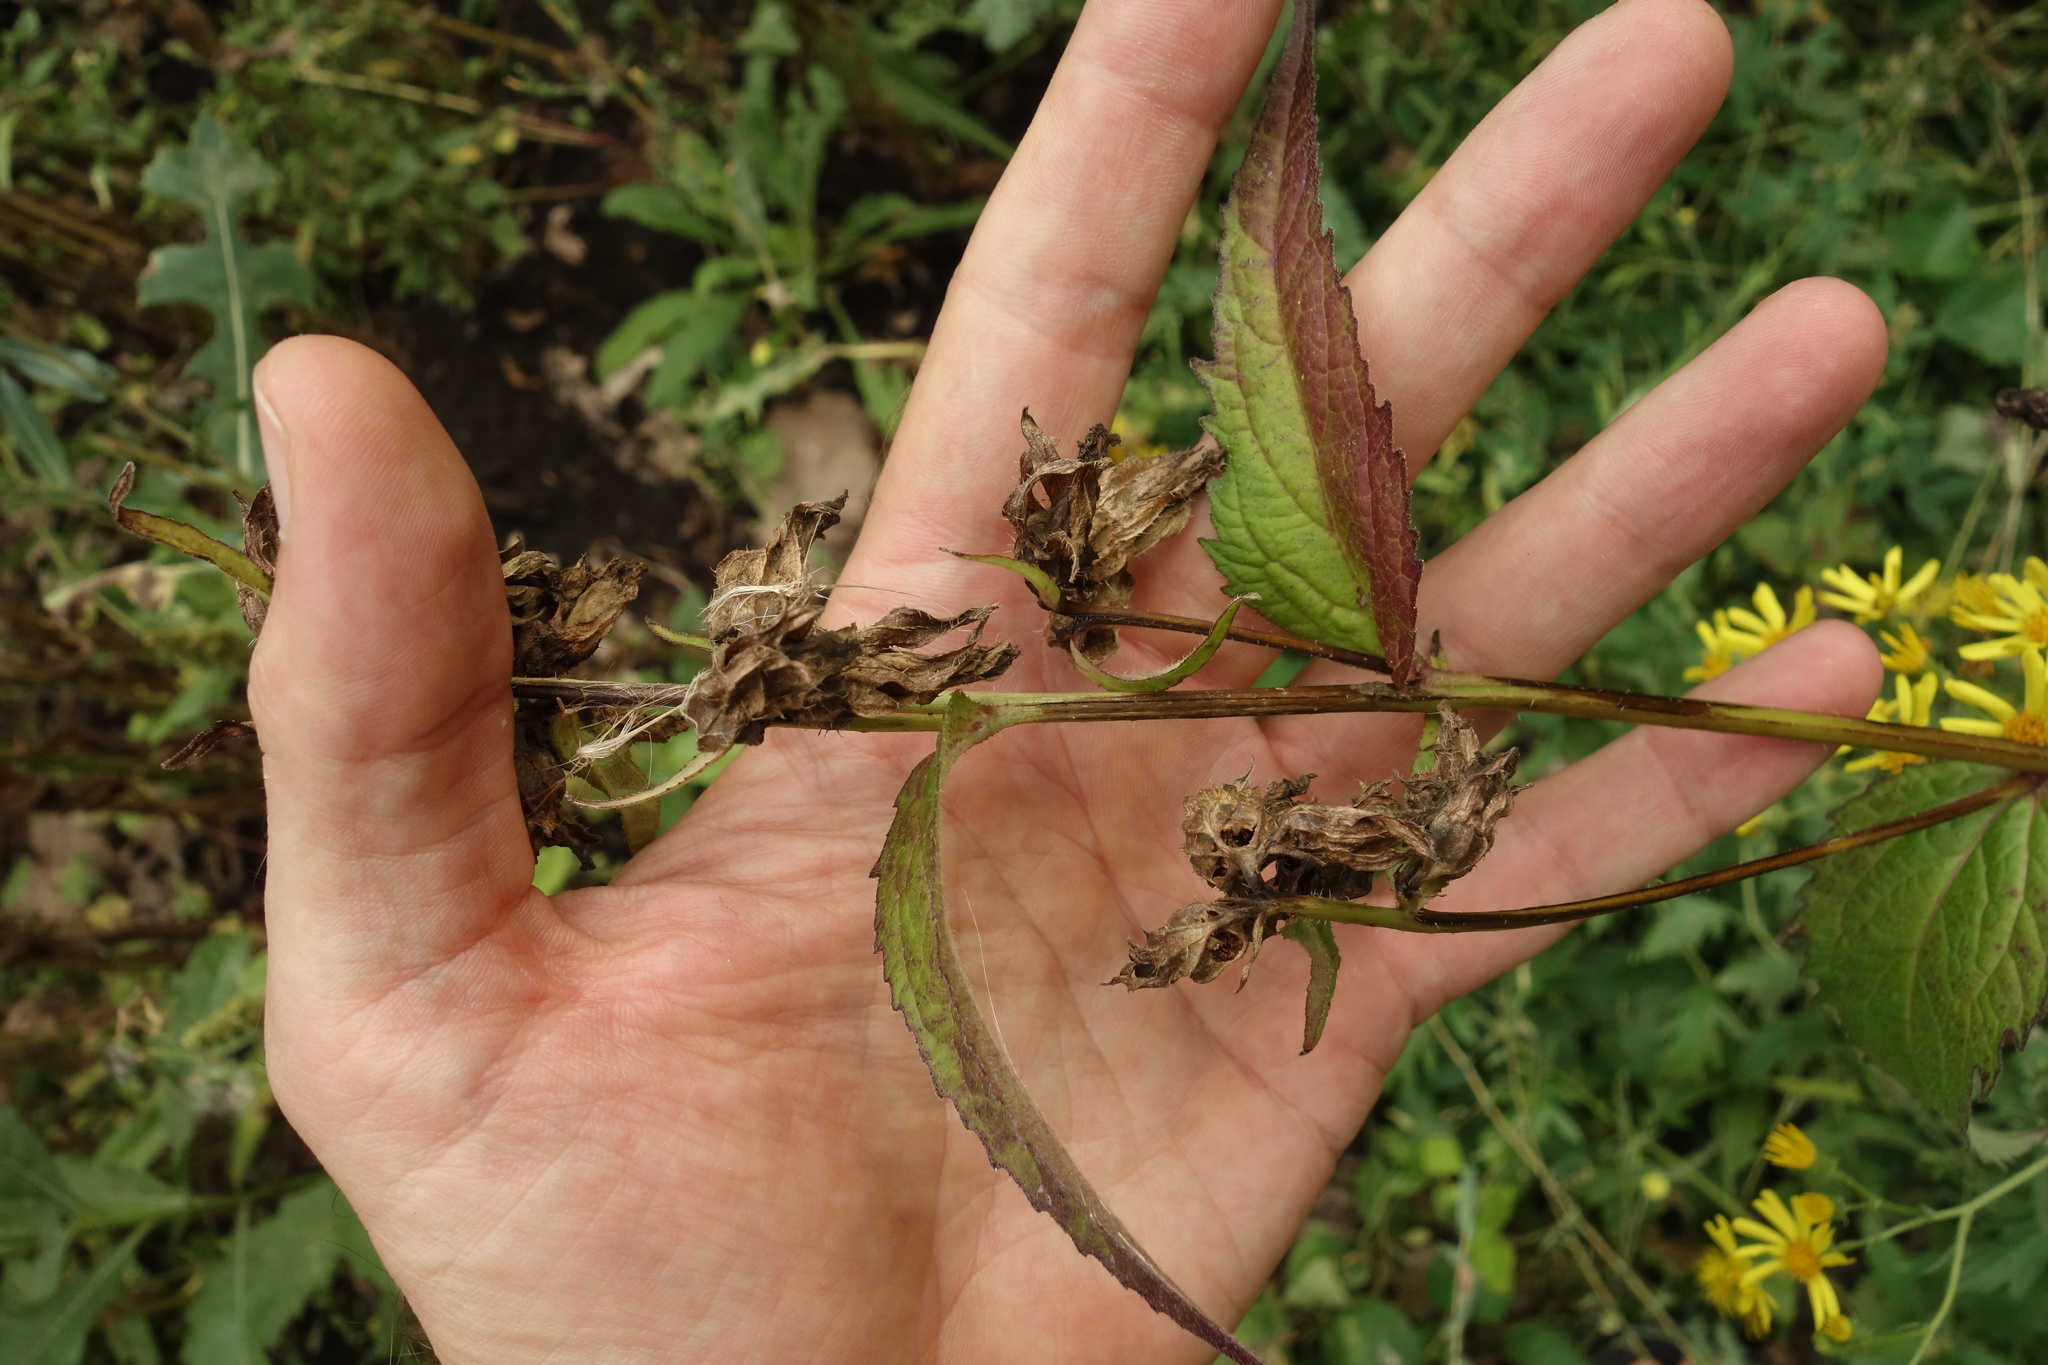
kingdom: Plantae
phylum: Tracheophyta
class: Magnoliopsida
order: Asterales
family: Campanulaceae
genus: Campanula
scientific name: Campanula trachelium
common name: Nettle-leaved bellflower
